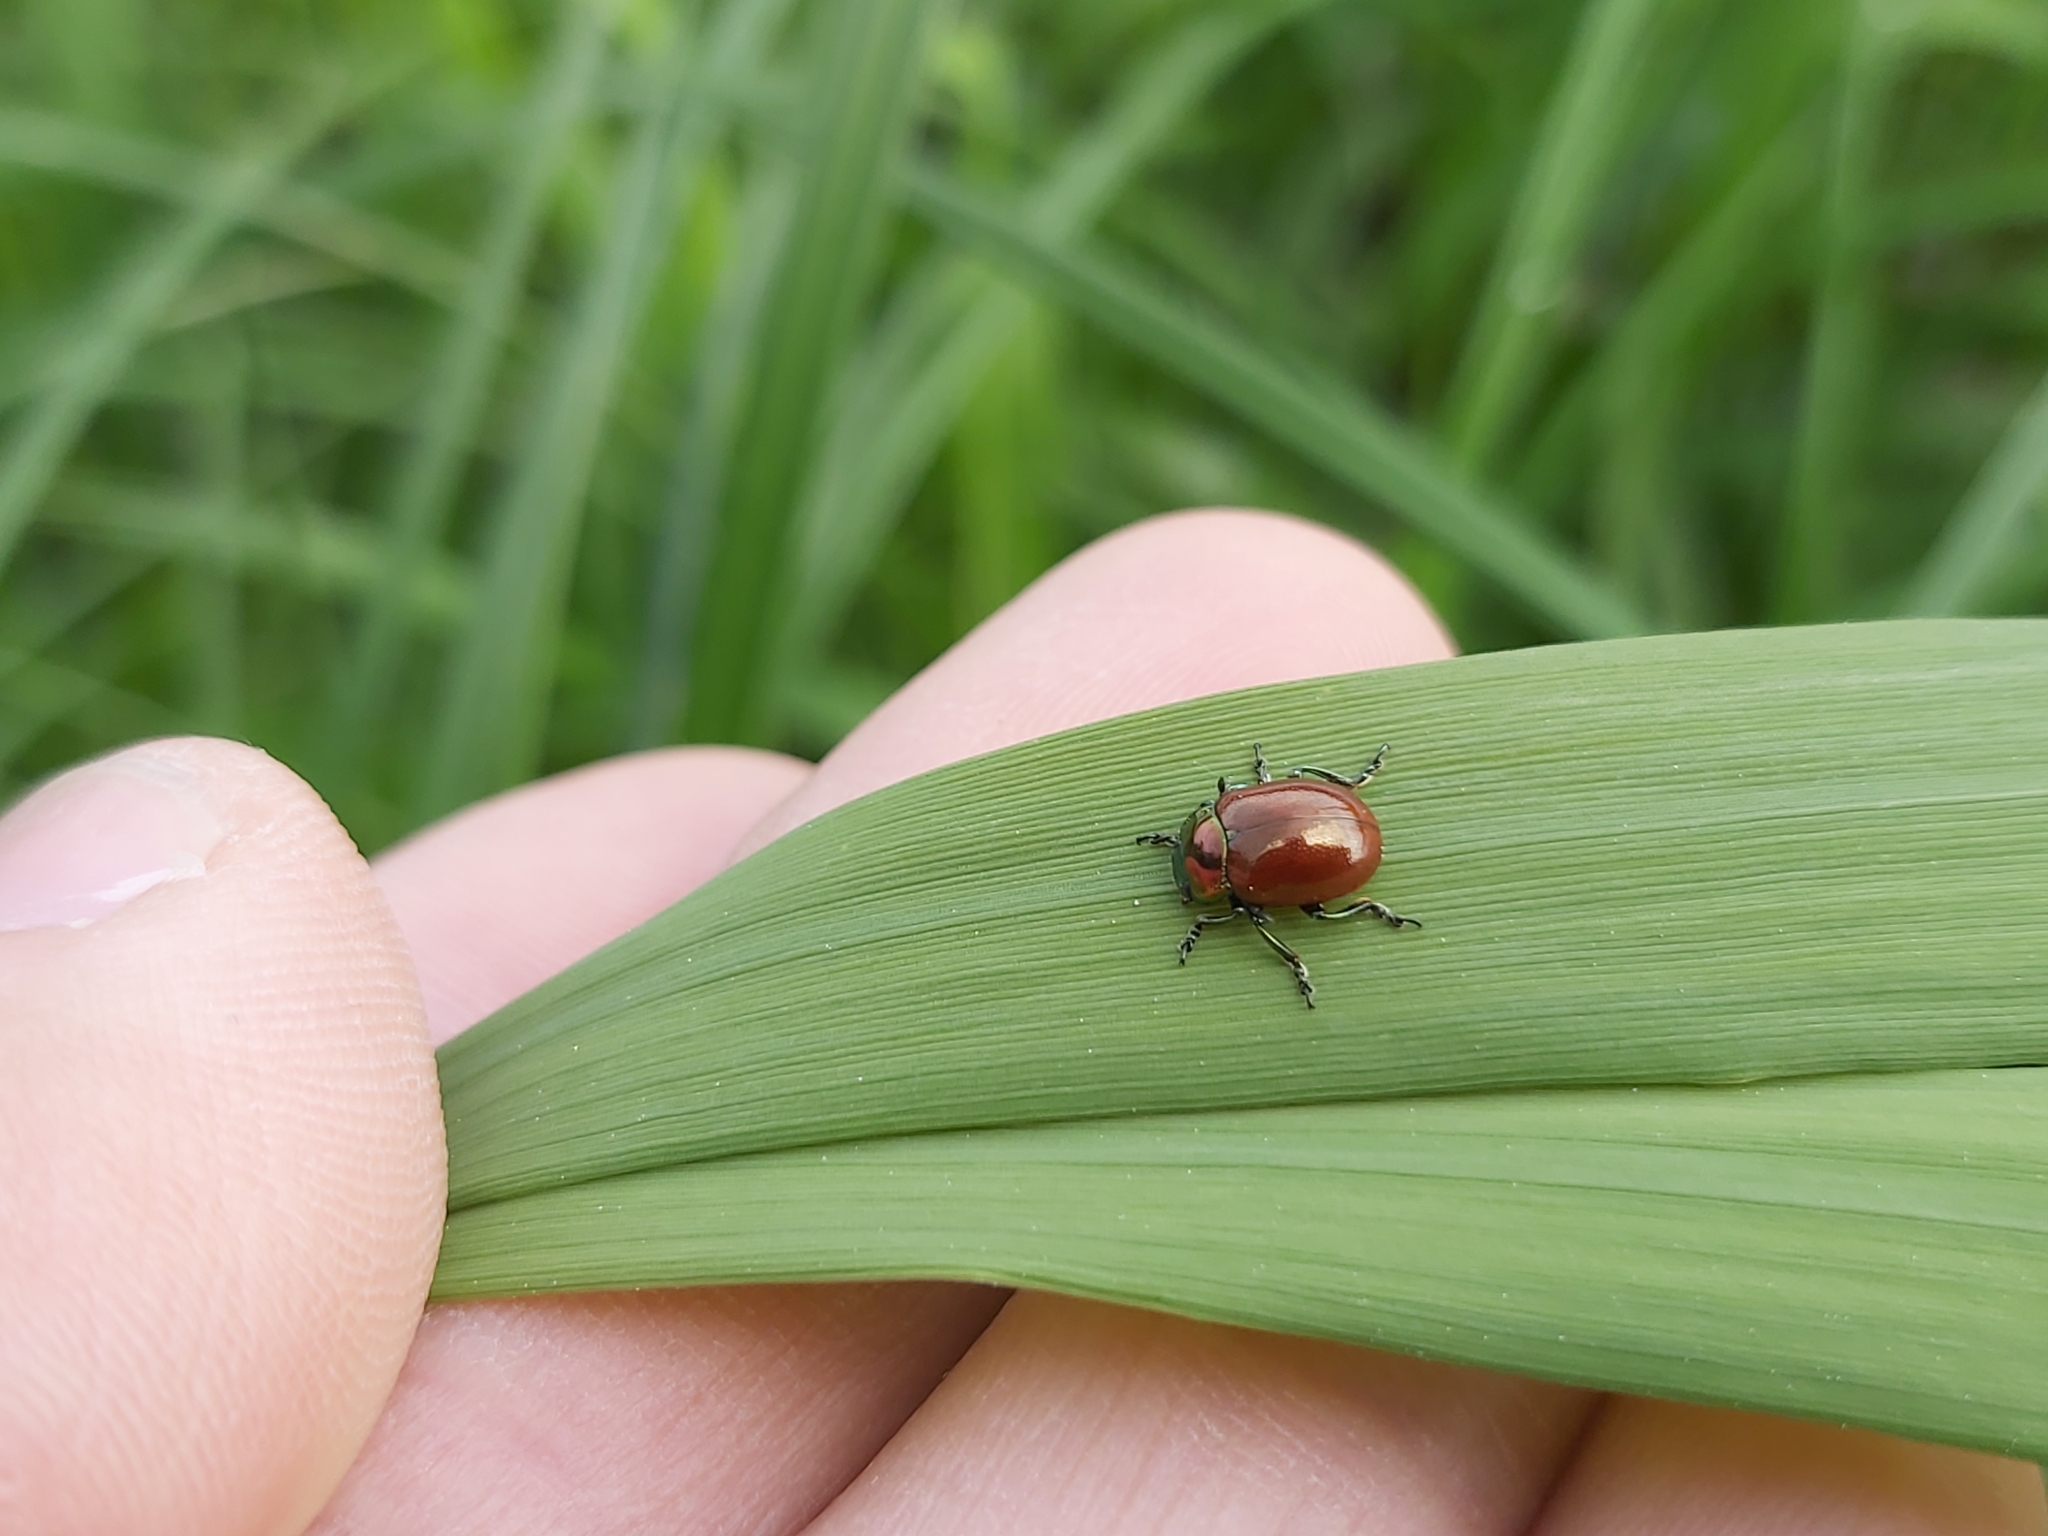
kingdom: Animalia
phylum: Arthropoda
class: Insecta
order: Coleoptera
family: Chrysomelidae
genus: Chrysomela
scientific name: Chrysomela polita
